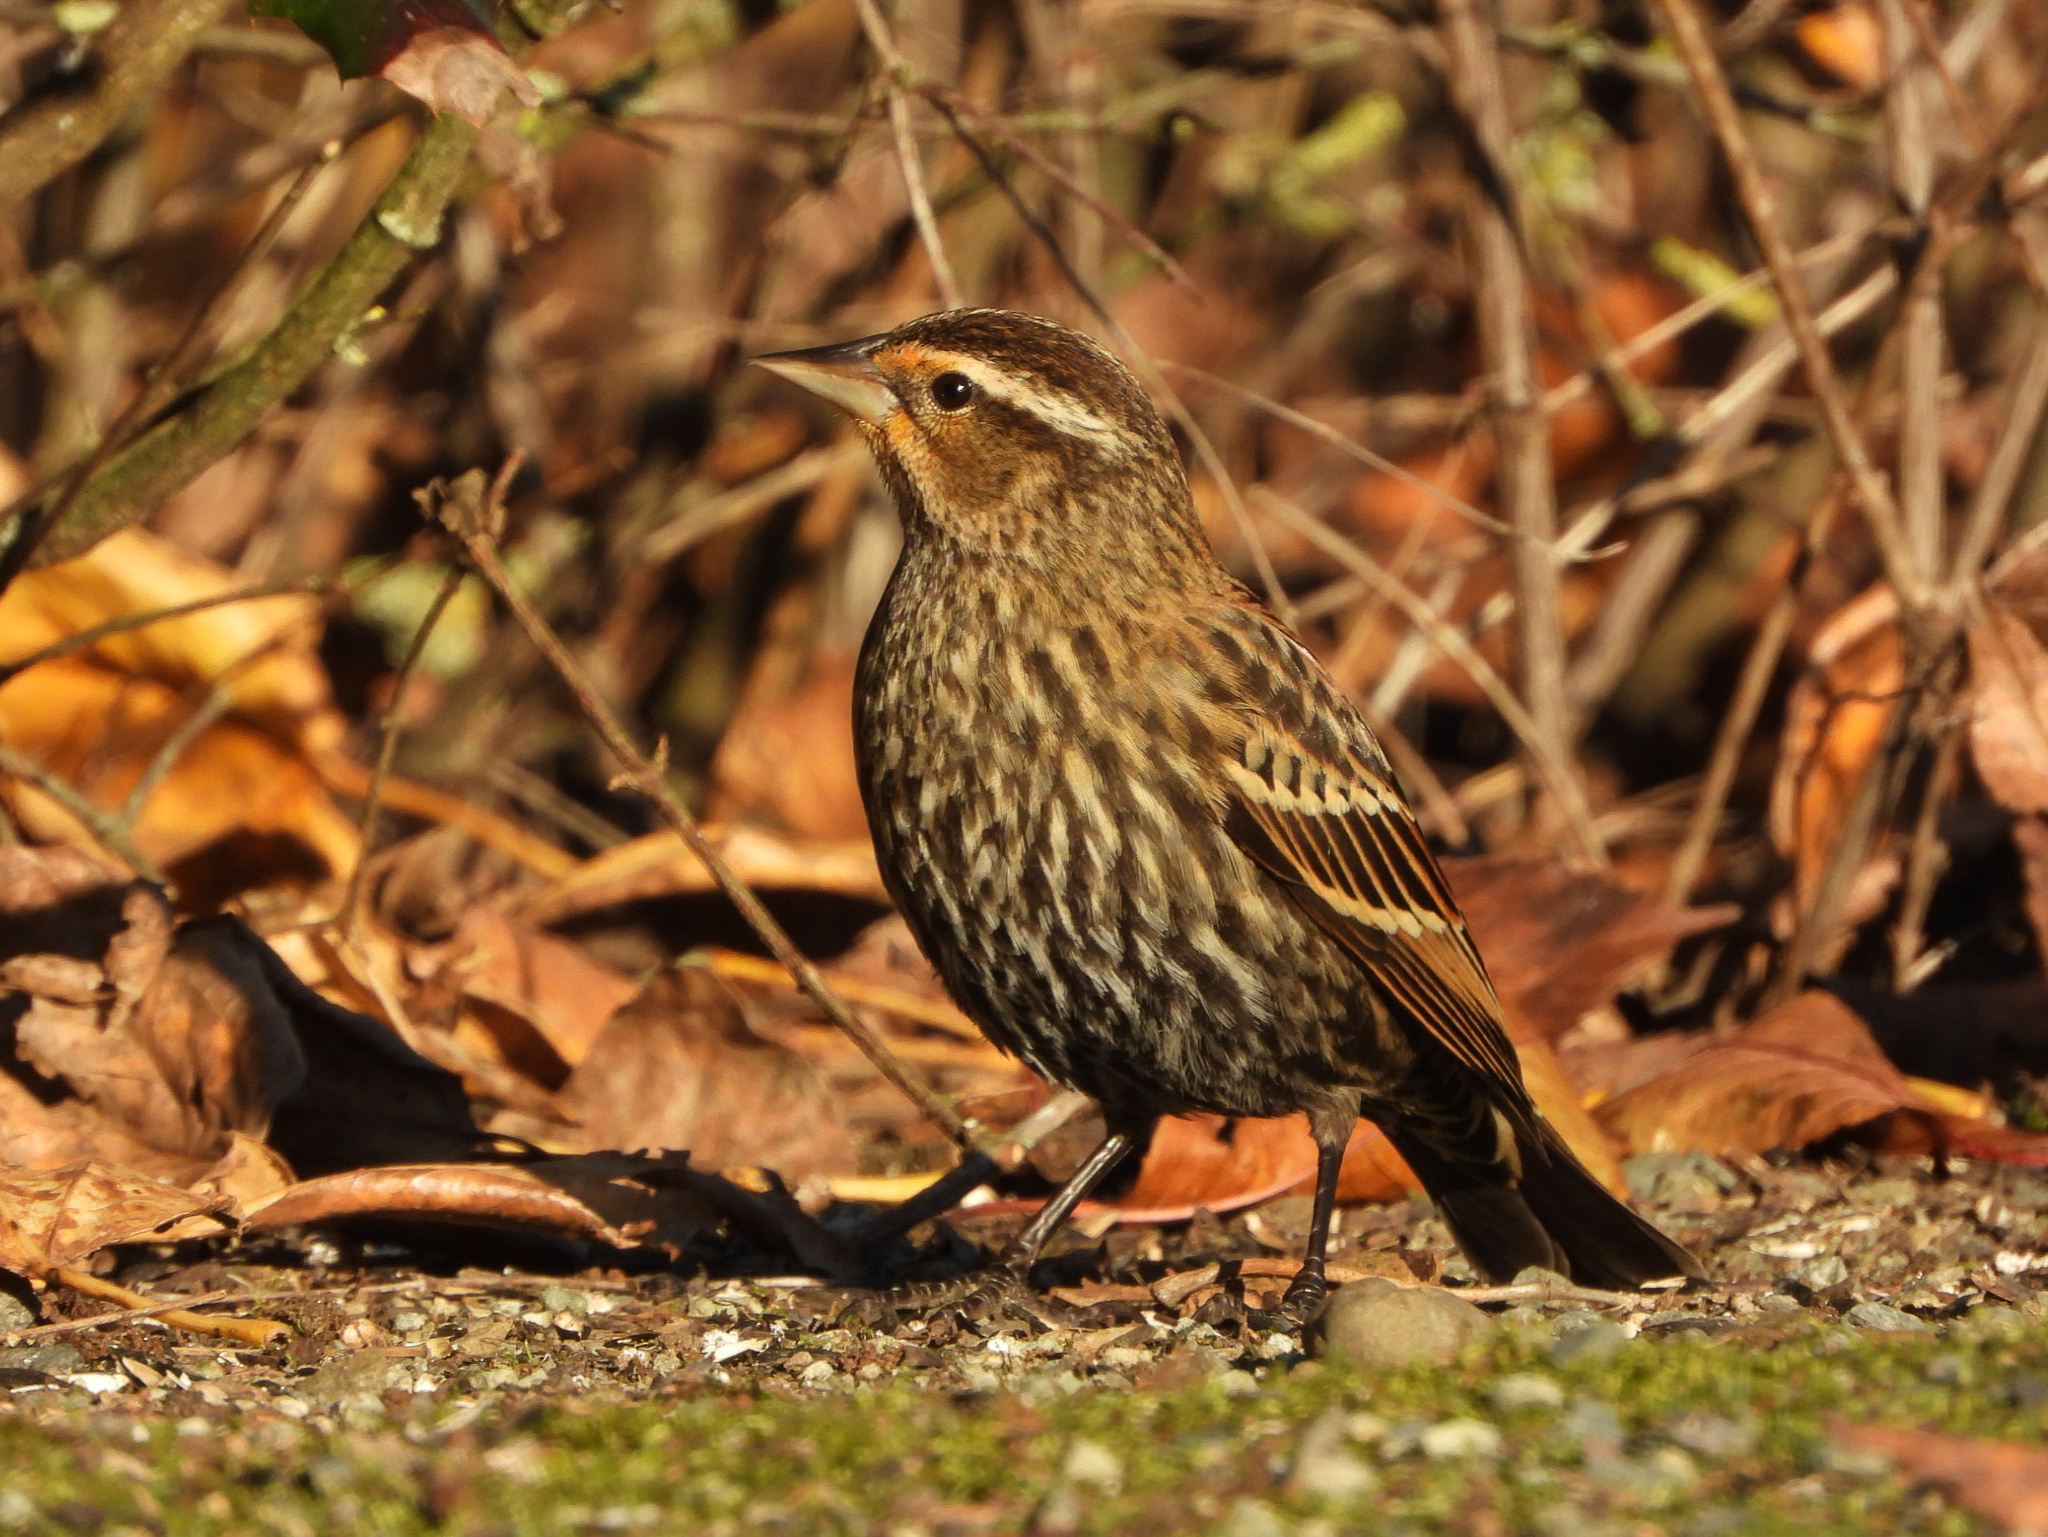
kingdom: Animalia
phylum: Chordata
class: Aves
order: Passeriformes
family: Icteridae
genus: Agelaius
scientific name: Agelaius phoeniceus
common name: Red-winged blackbird
